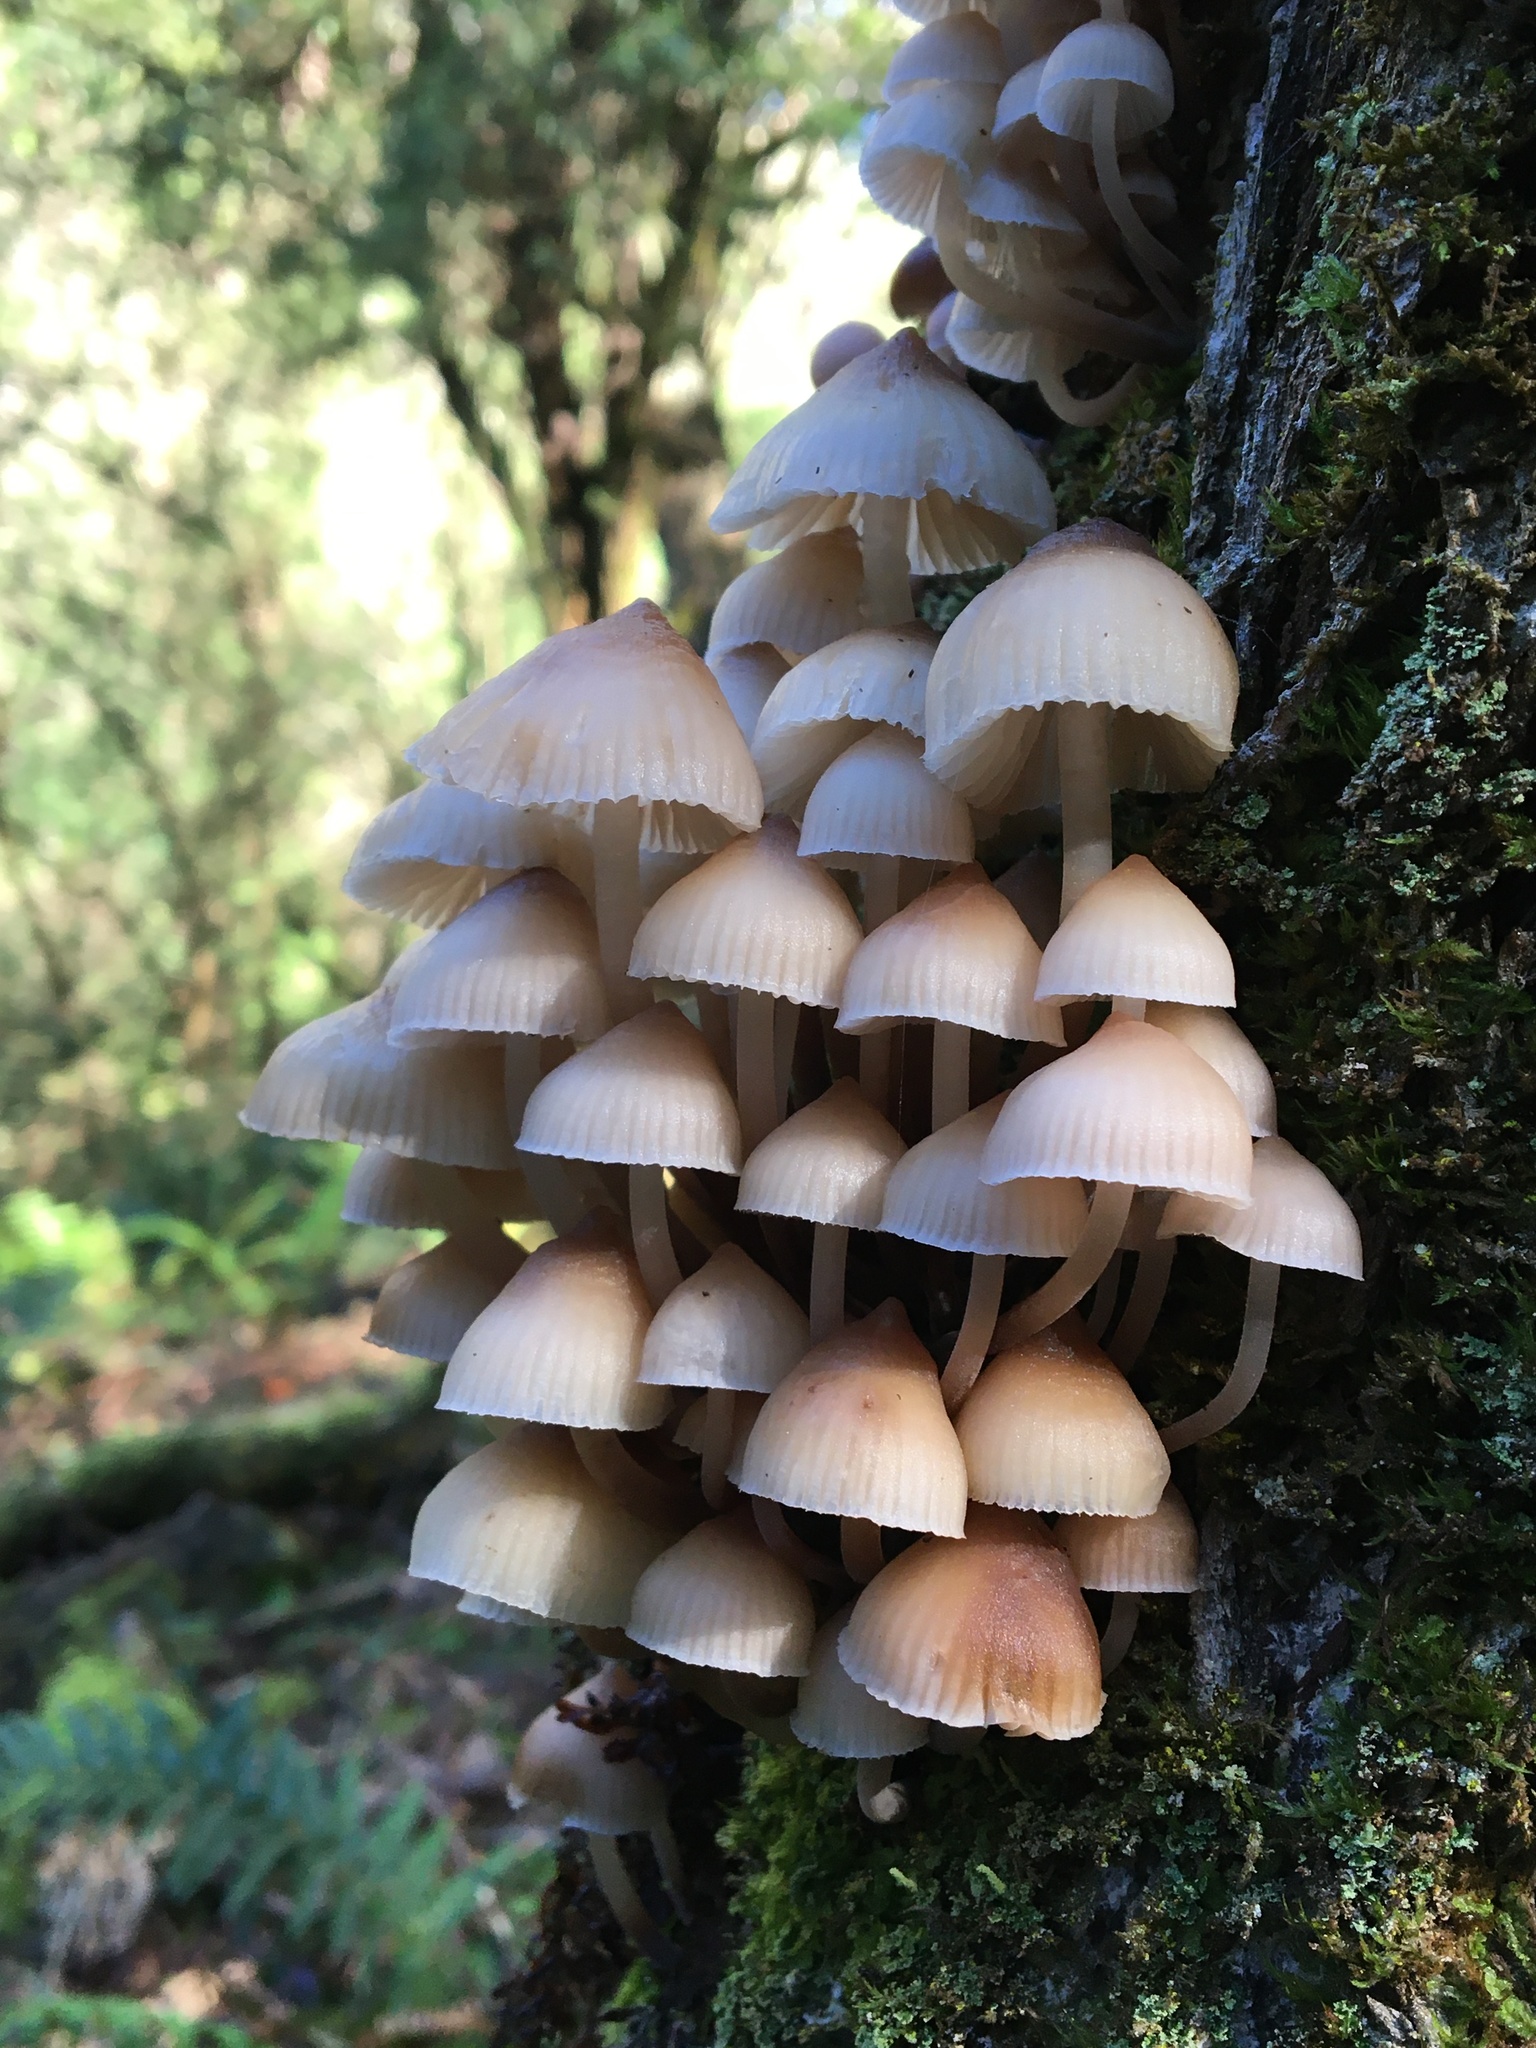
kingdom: Fungi
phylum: Basidiomycota
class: Agaricomycetes
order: Agaricales
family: Mycenaceae
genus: Mycena
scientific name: Mycena clarkeana
